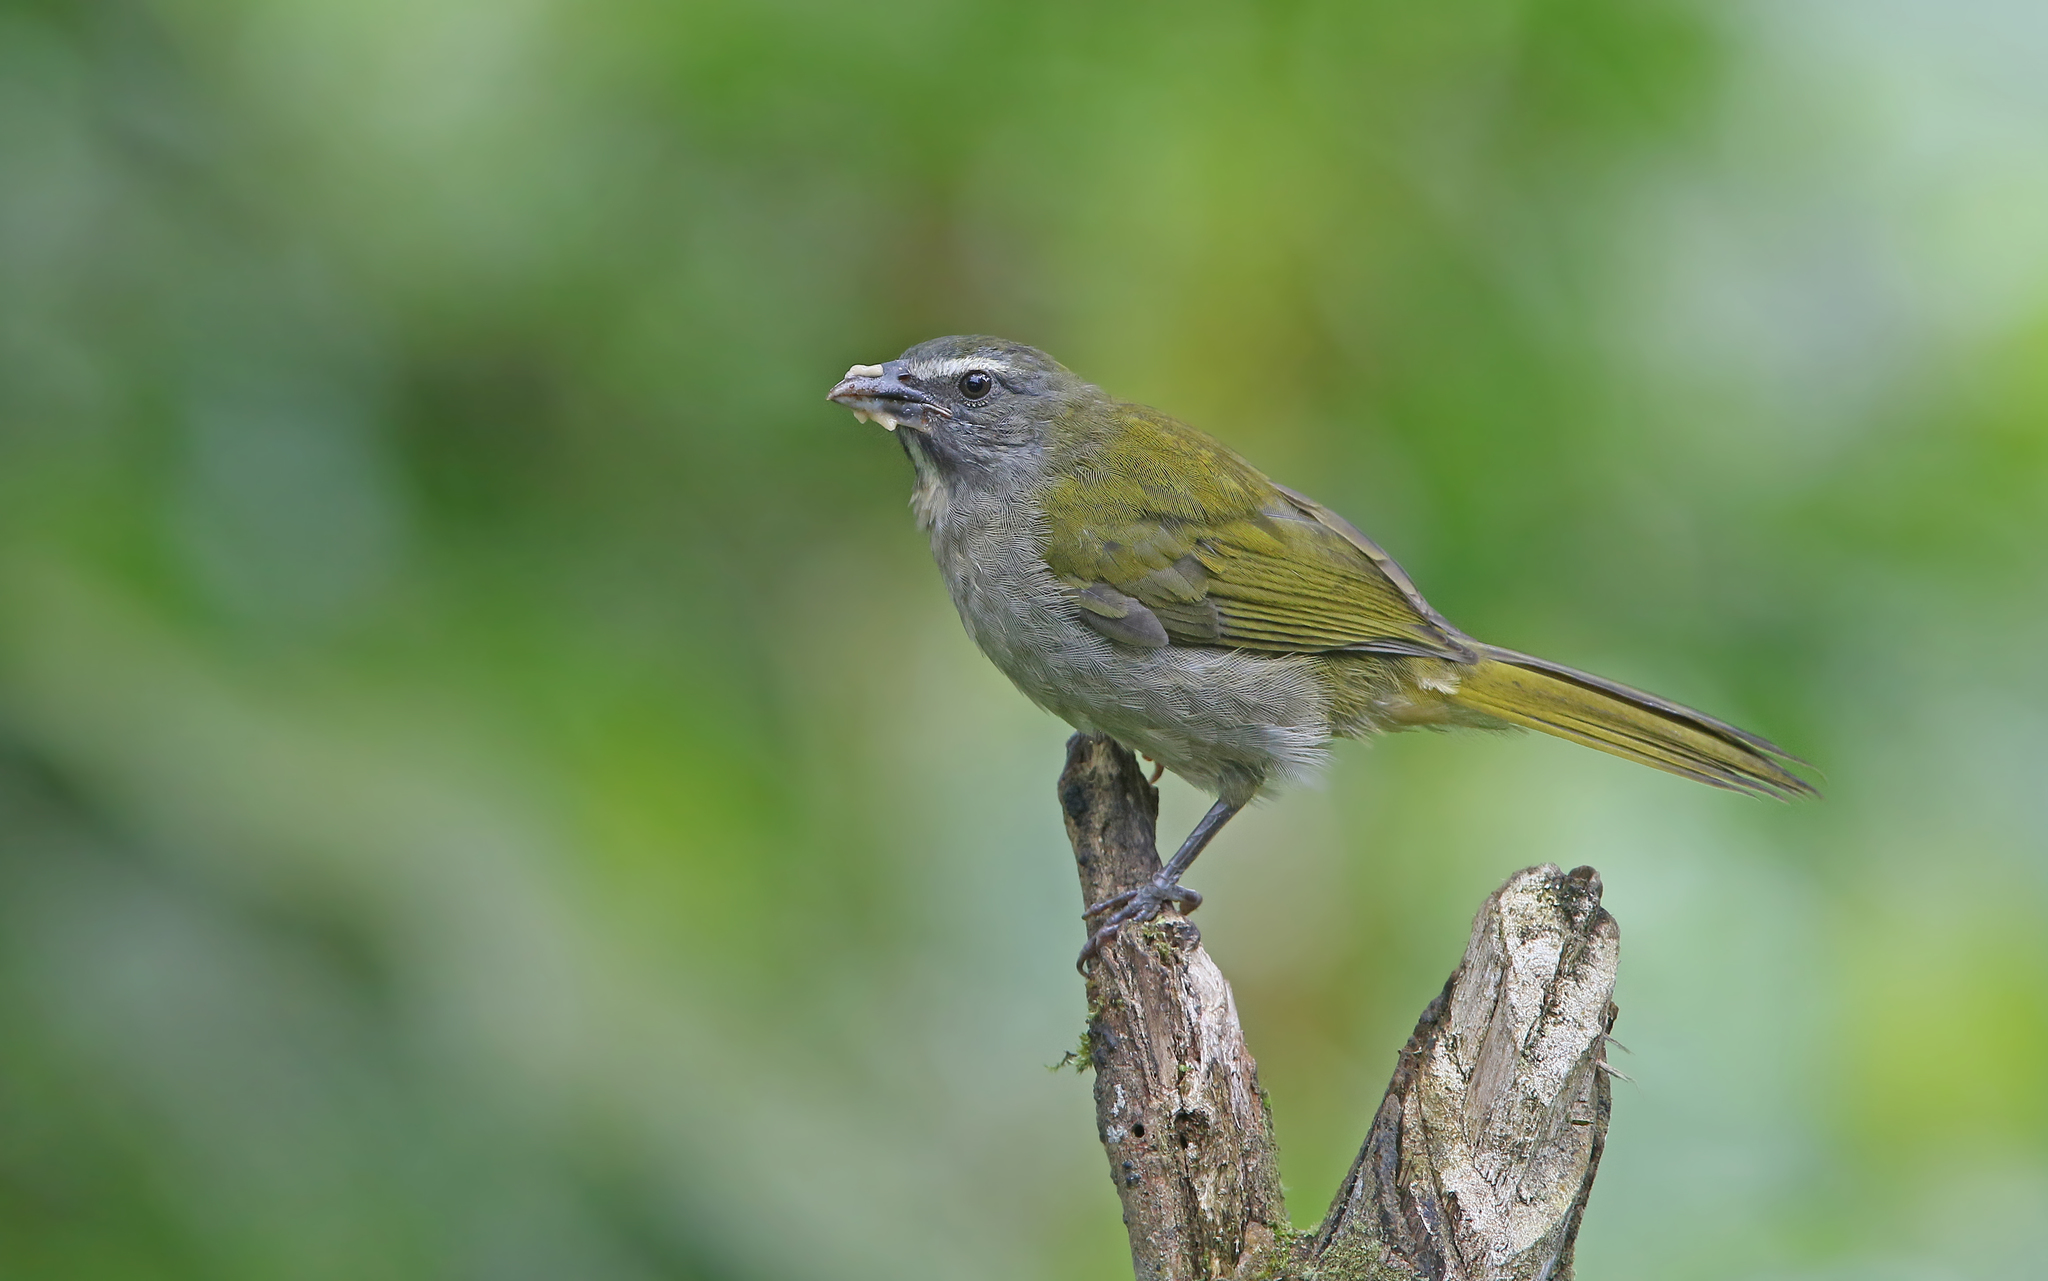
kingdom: Animalia
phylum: Chordata
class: Aves
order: Passeriformes
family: Thraupidae
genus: Saltator
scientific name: Saltator maximus
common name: Buff-throated saltator
